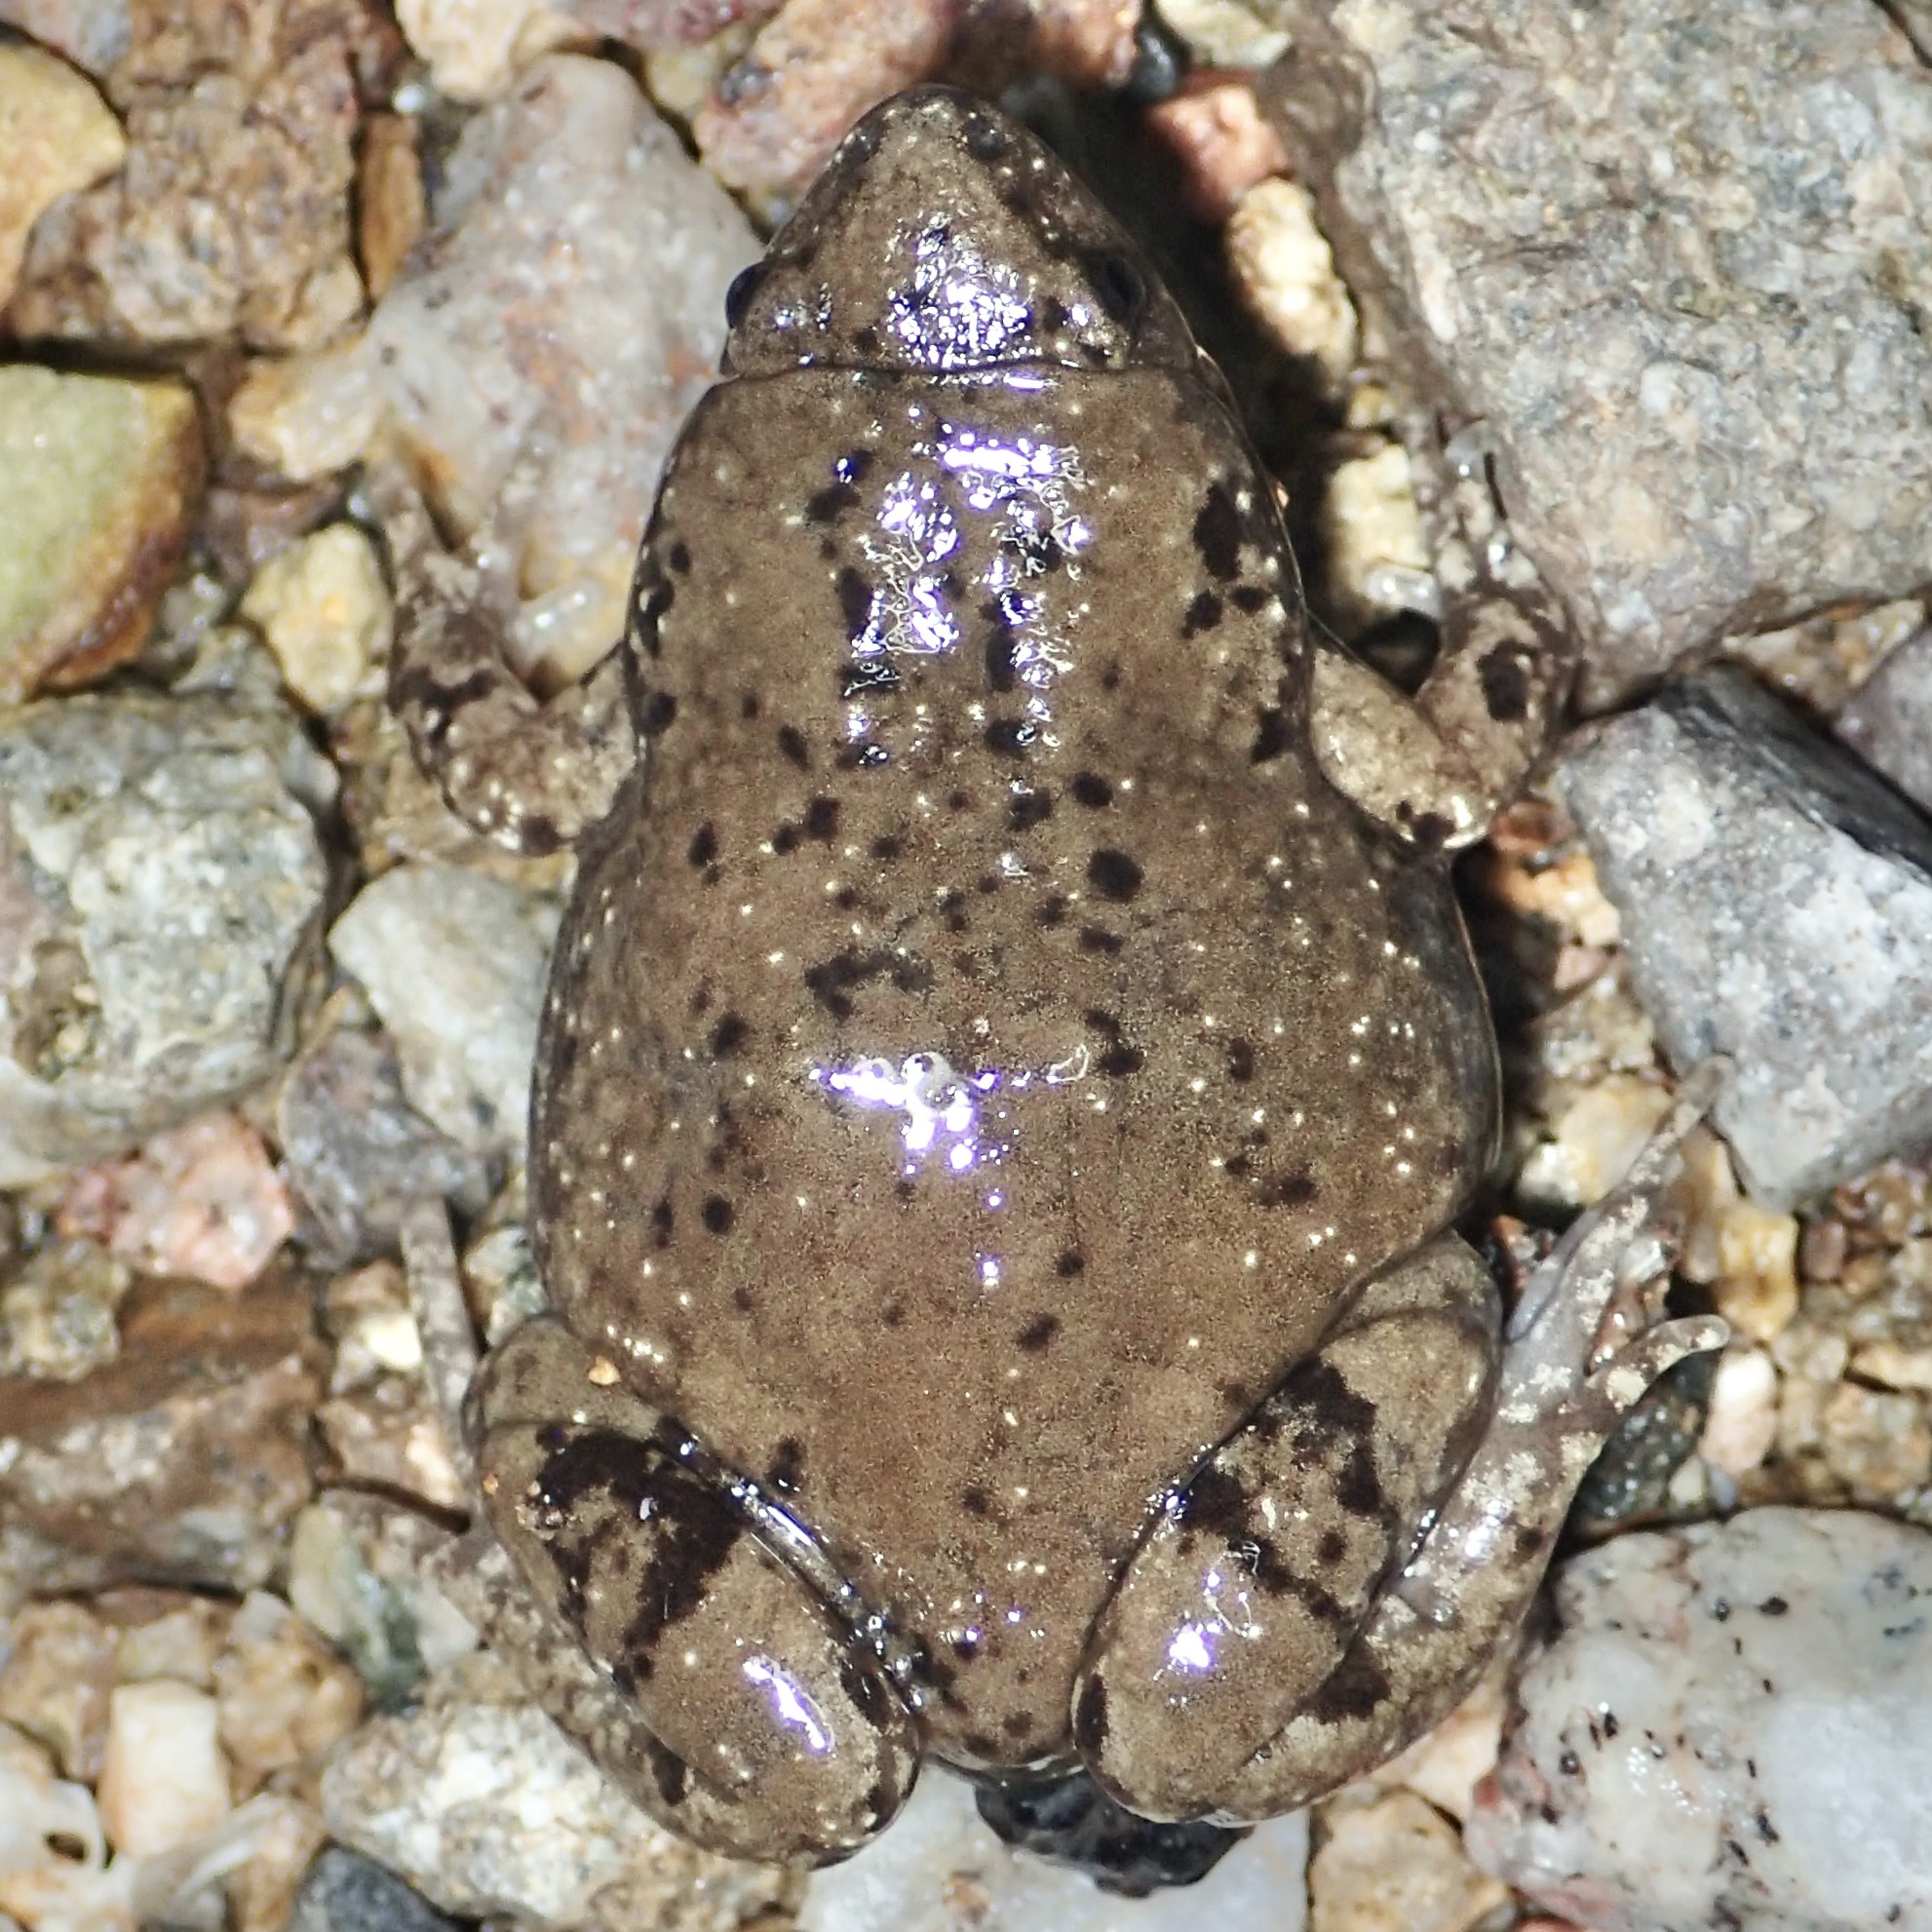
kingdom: Animalia
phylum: Chordata
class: Amphibia
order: Anura
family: Microhylidae
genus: Gastrophryne
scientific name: Gastrophryne mazatlanensis
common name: Sinaloan narrow-mouthed toad
